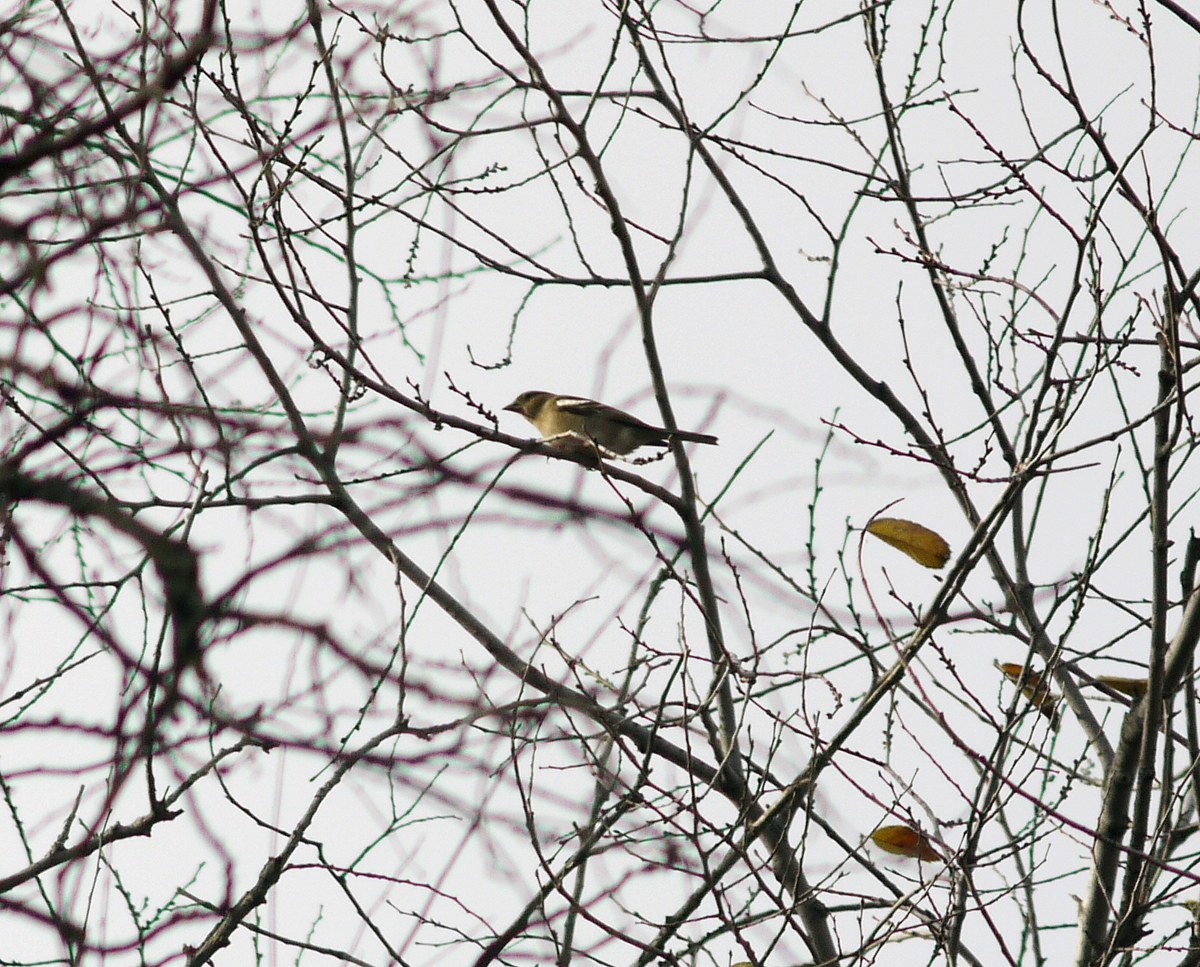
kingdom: Animalia
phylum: Chordata
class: Aves
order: Passeriformes
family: Fringillidae
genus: Fringilla
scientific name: Fringilla coelebs
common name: Common chaffinch
